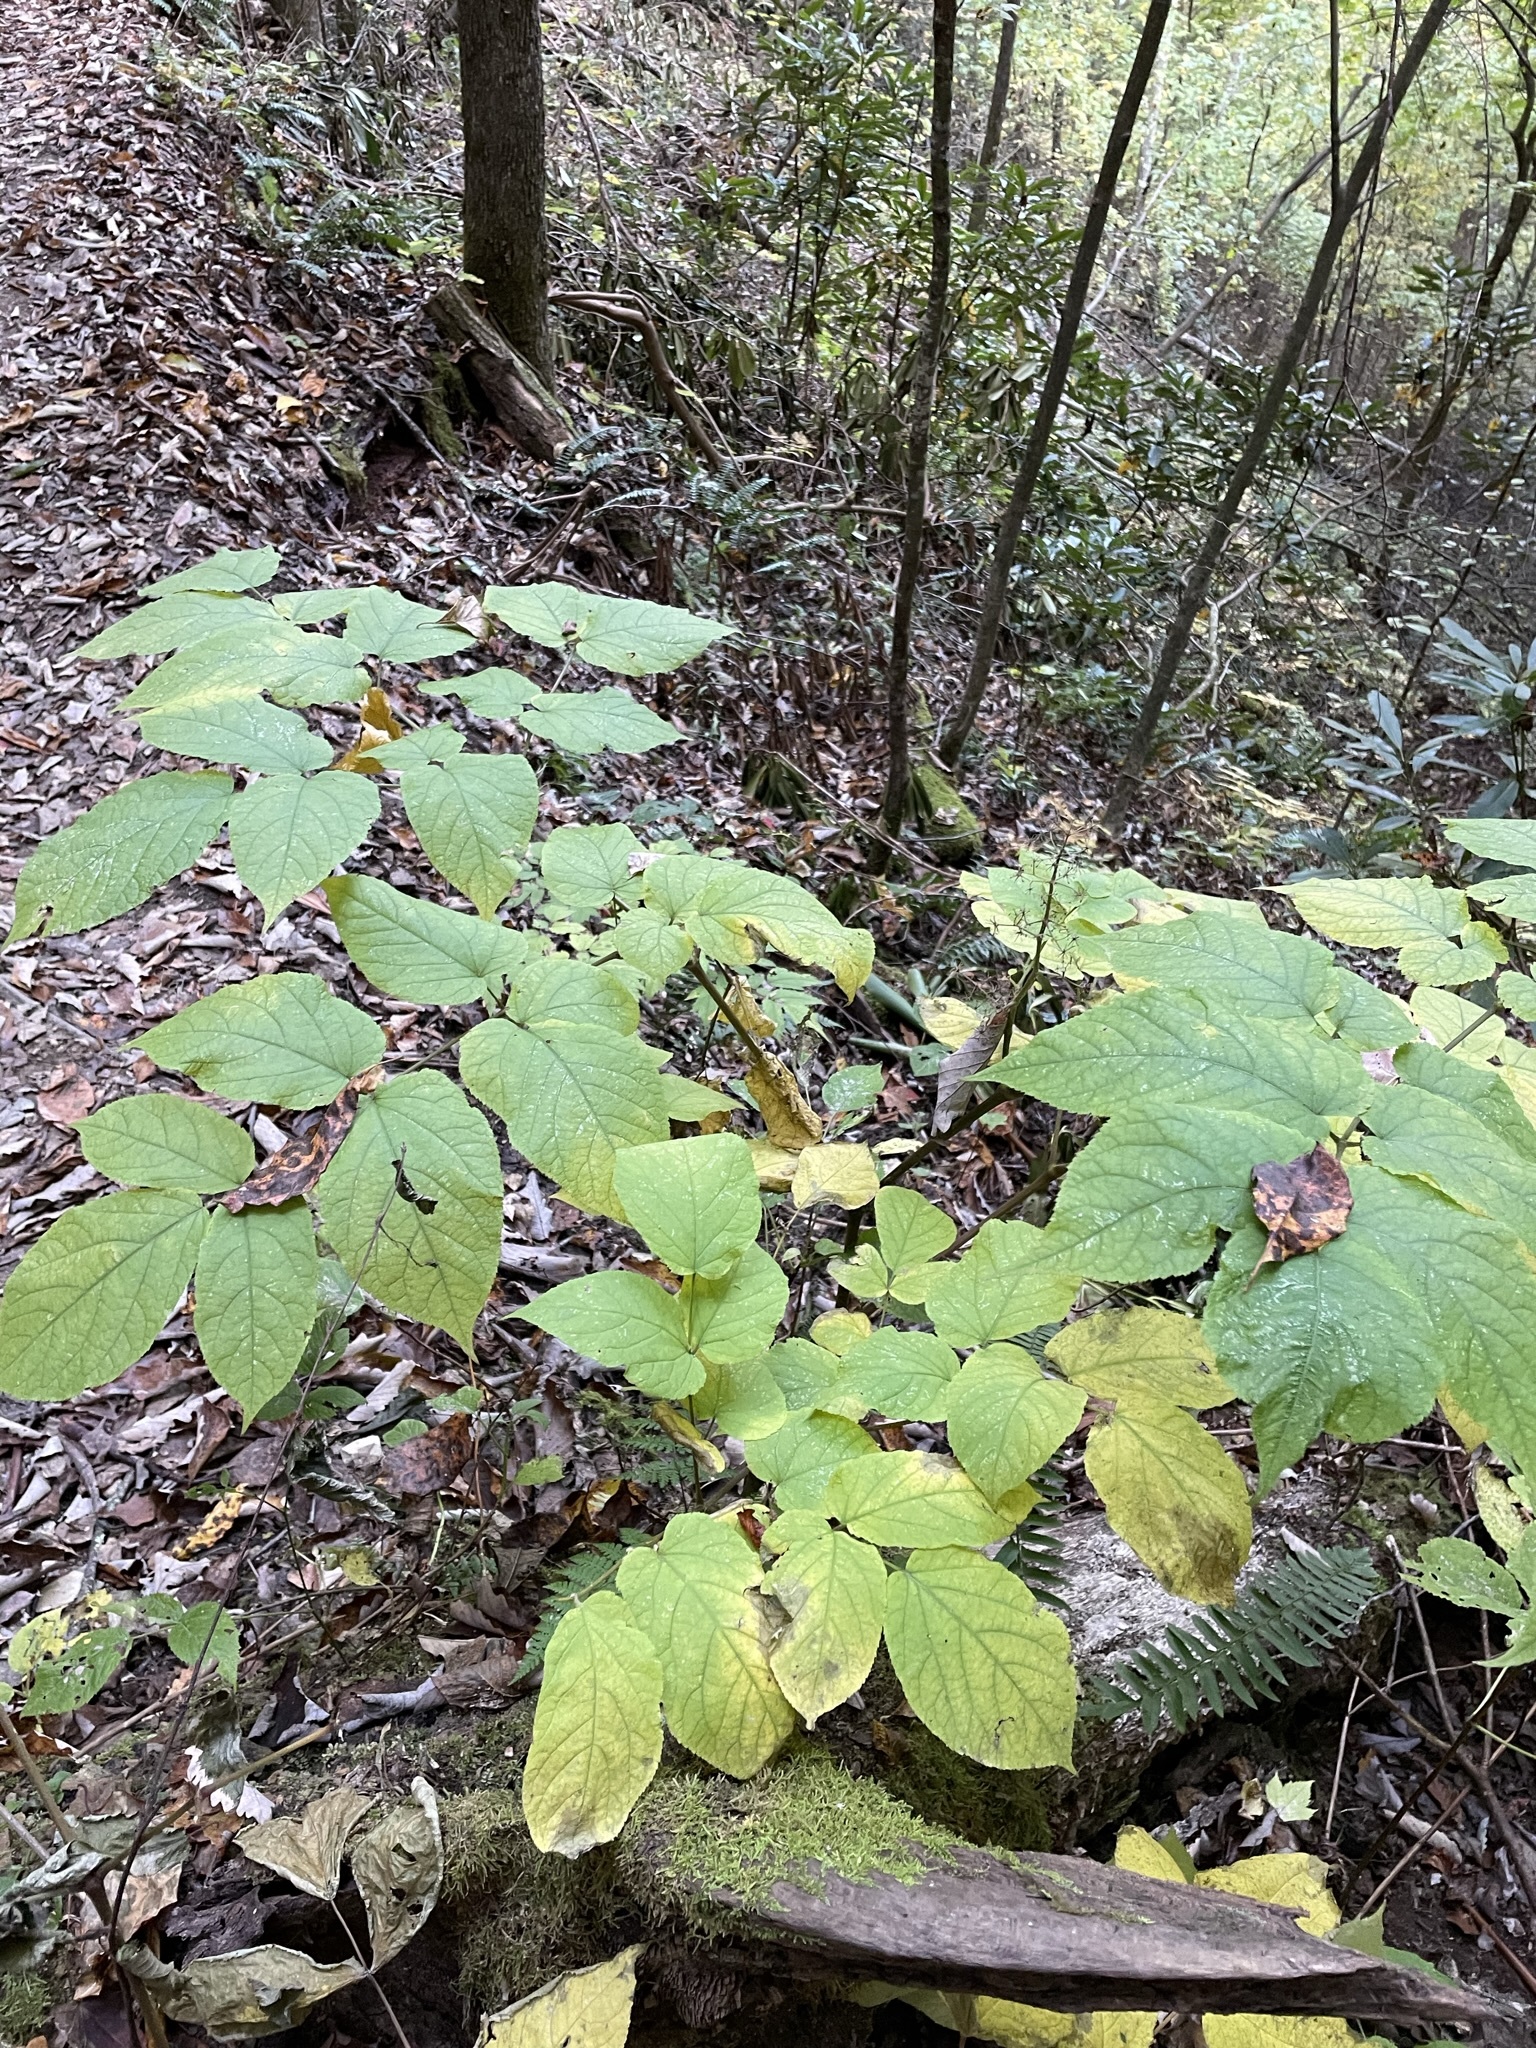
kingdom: Plantae
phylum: Tracheophyta
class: Magnoliopsida
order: Apiales
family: Araliaceae
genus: Aralia
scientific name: Aralia racemosa
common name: American-spikenard
